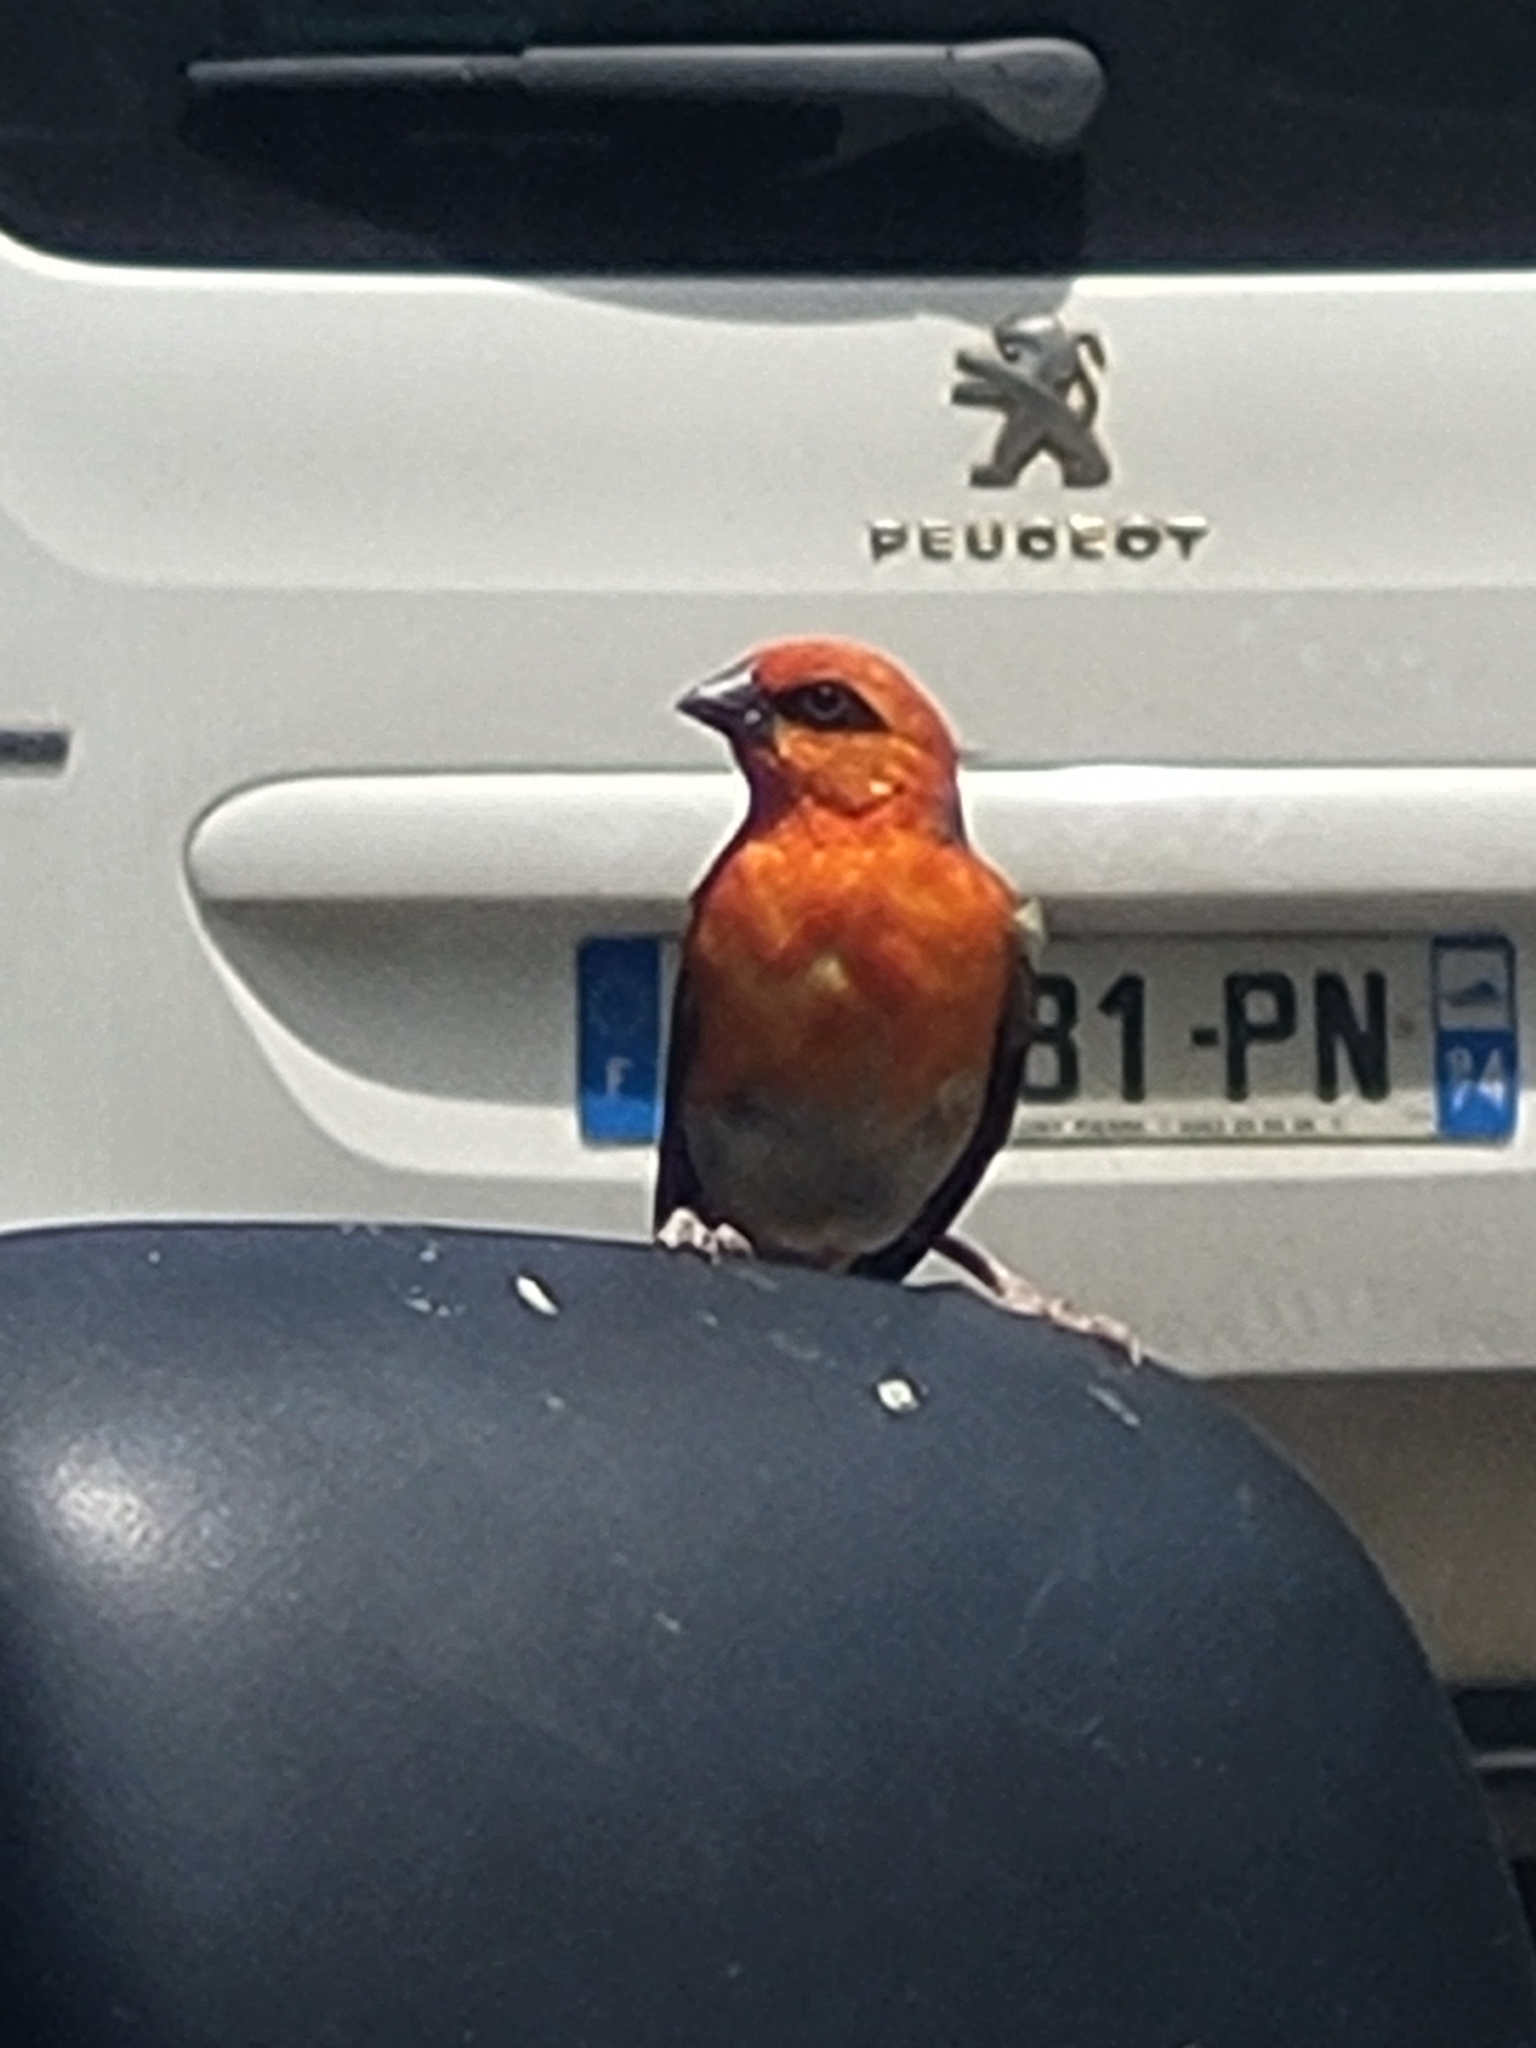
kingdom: Animalia
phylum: Chordata
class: Aves
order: Passeriformes
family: Ploceidae
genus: Foudia
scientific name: Foudia madagascariensis
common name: Red fody
